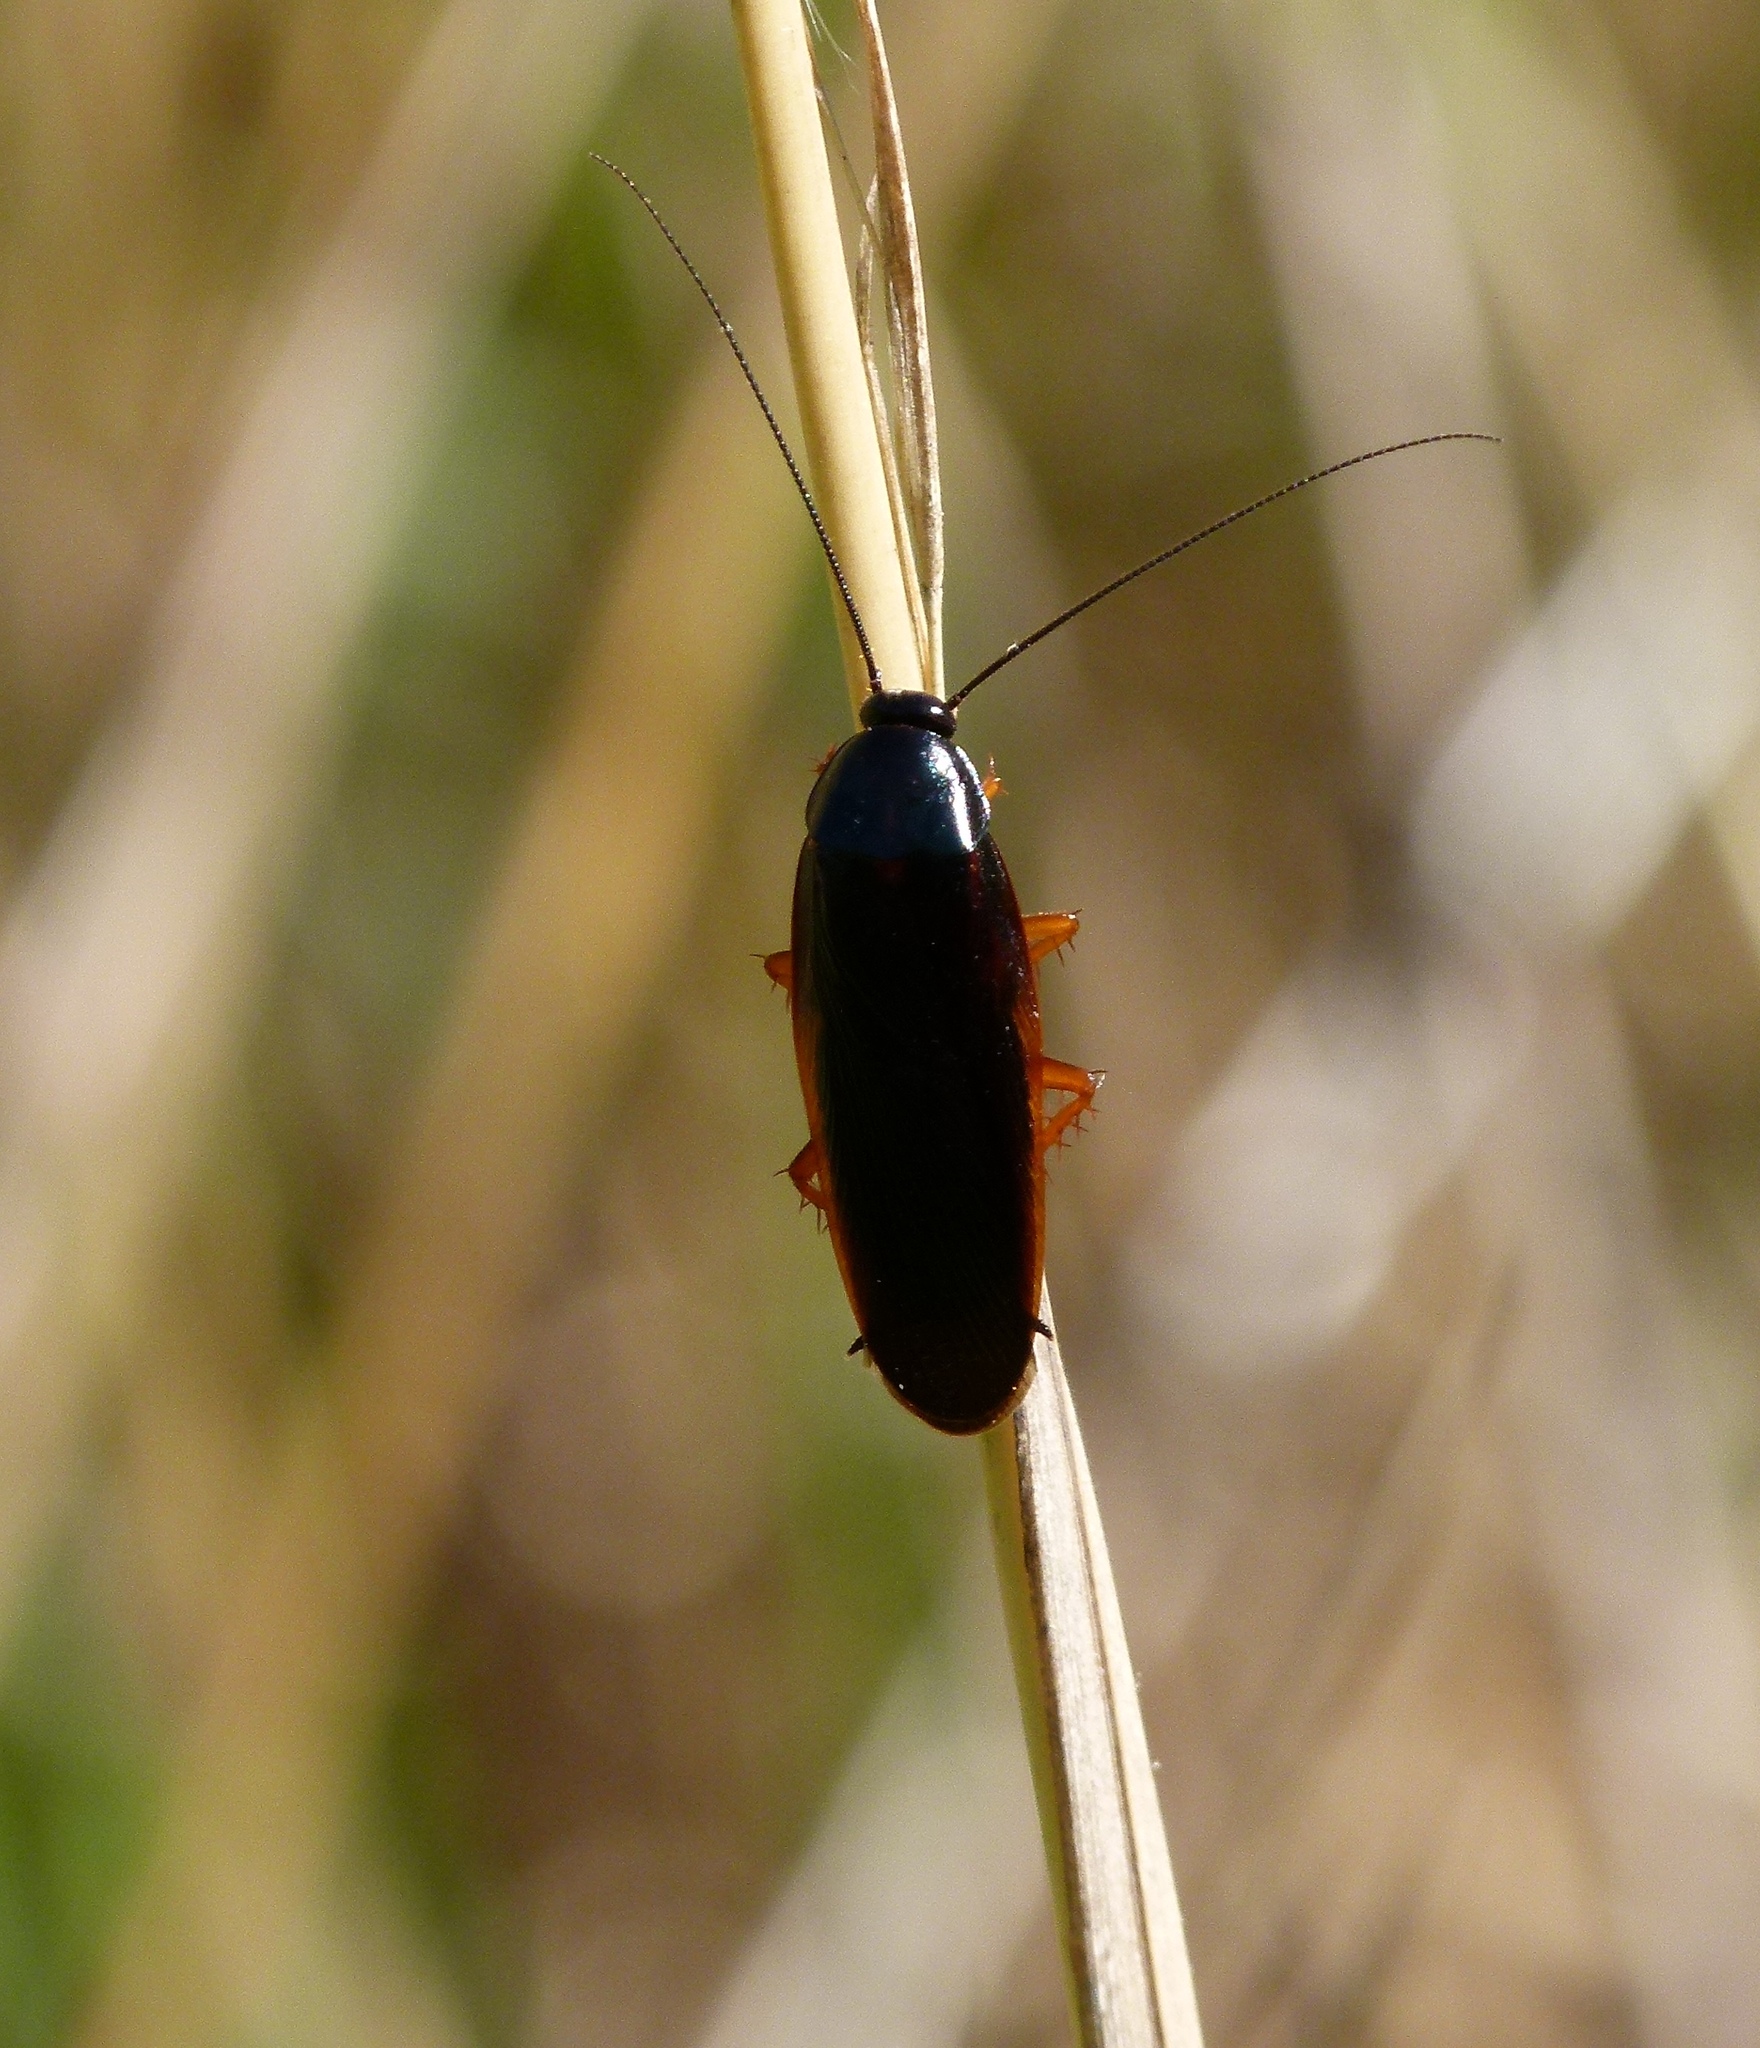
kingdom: Animalia
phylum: Arthropoda
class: Insecta
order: Blattodea
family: Ectobiidae
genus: Ischnoptera
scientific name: Ischnoptera deropeltiformis
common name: Dark wood cockroach
